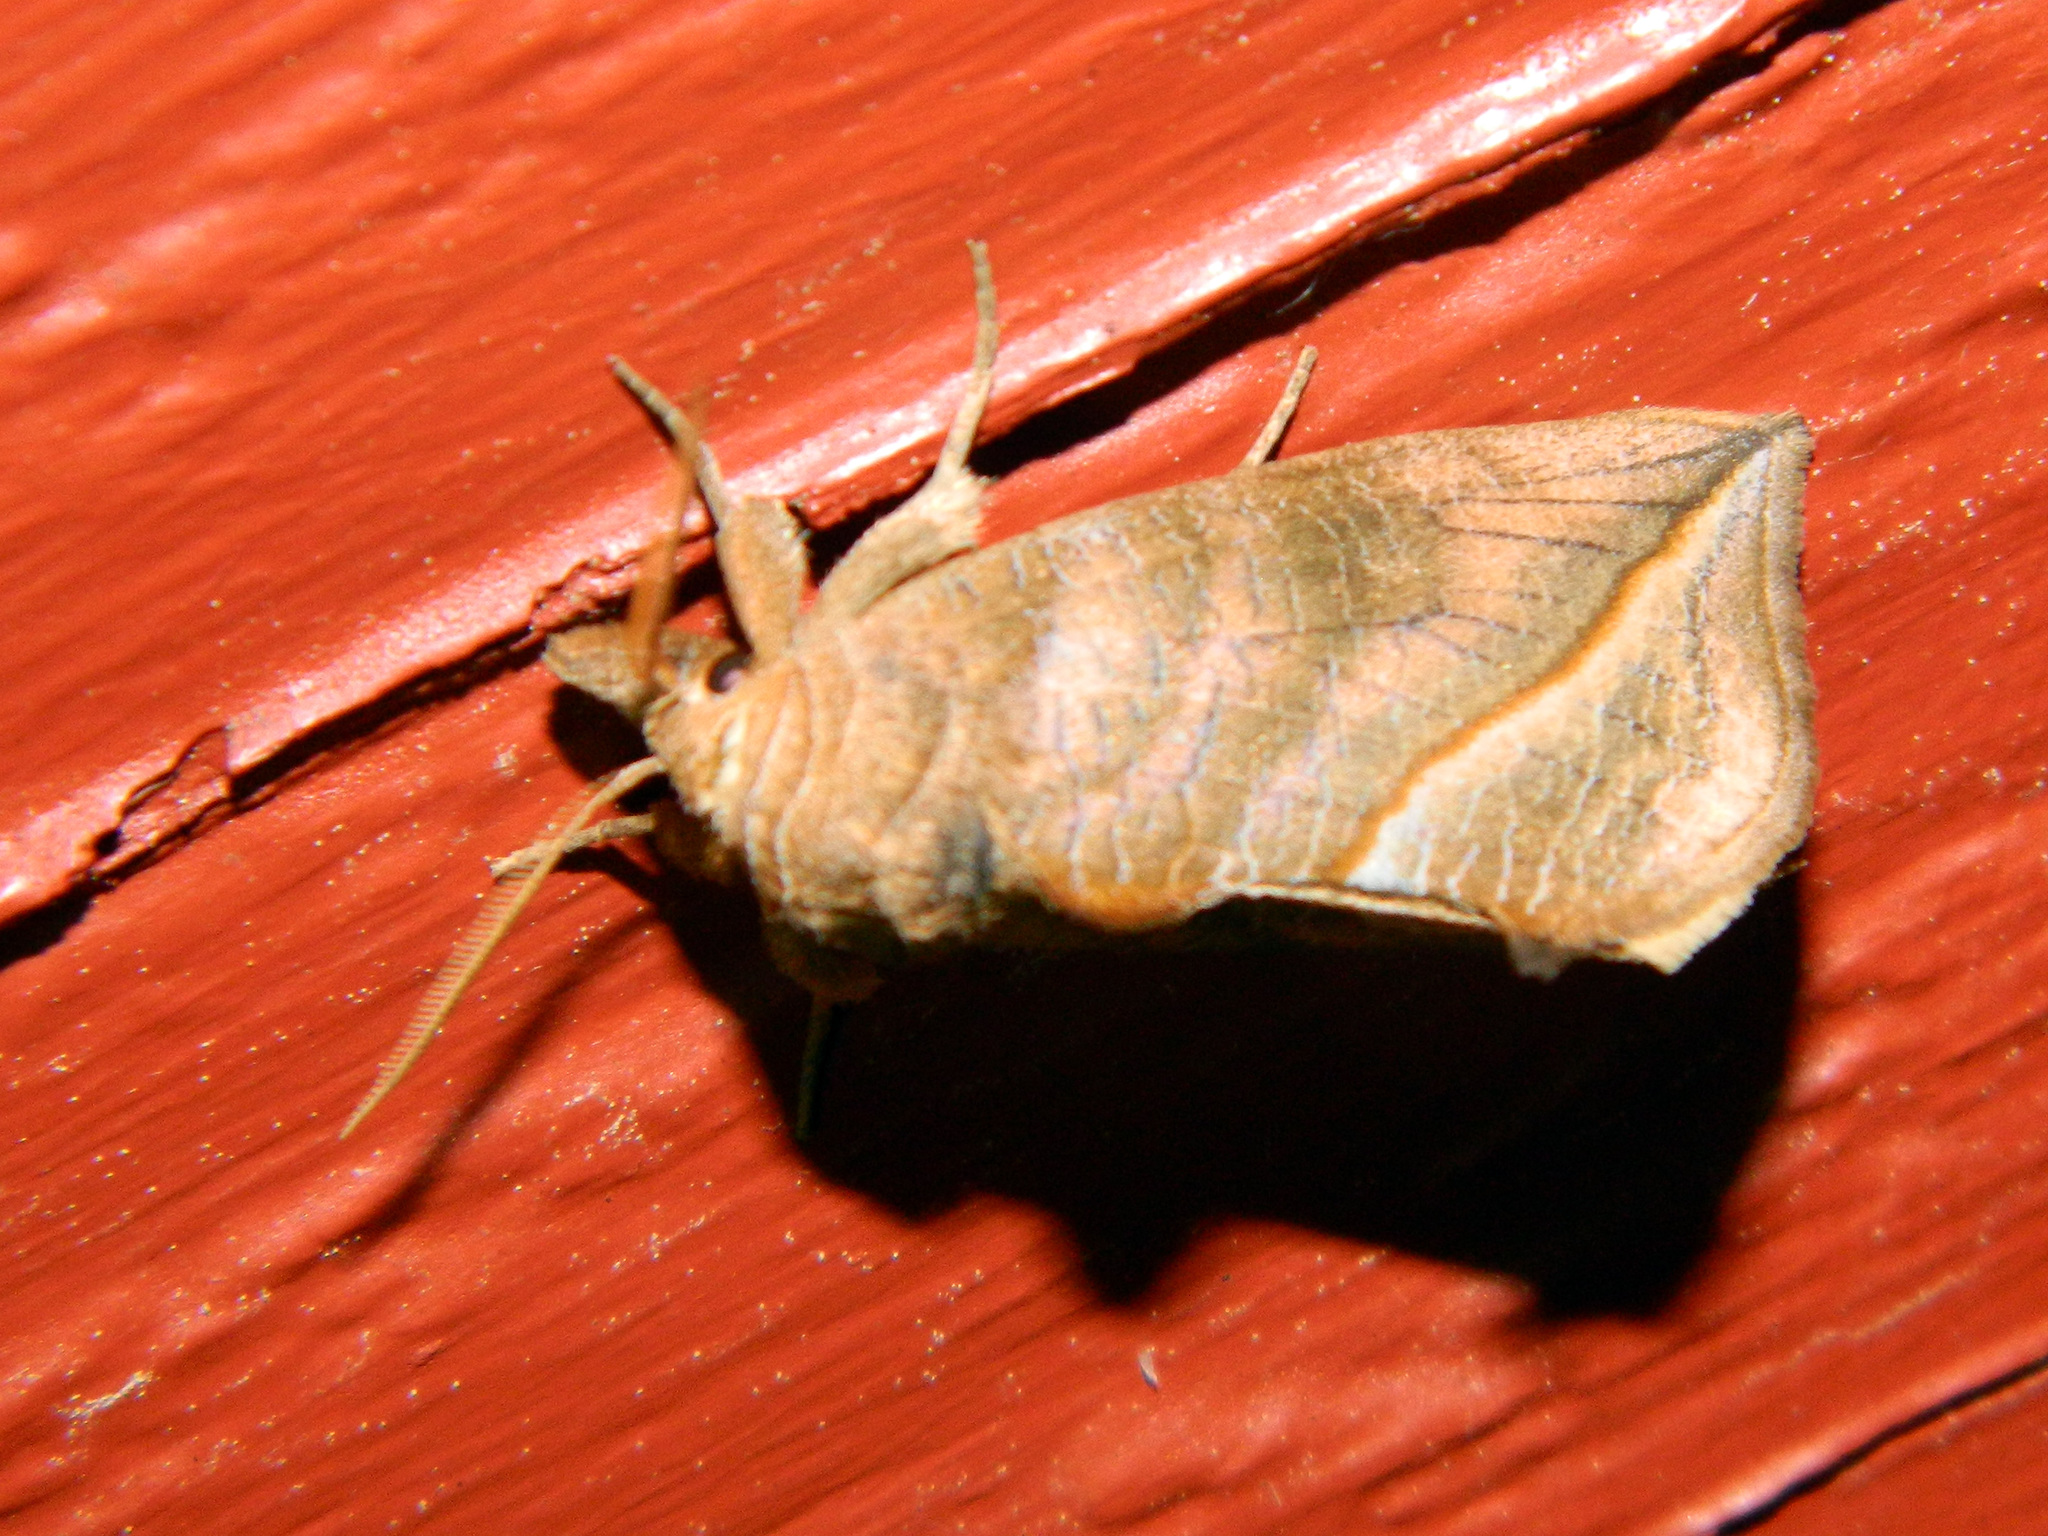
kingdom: Animalia
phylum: Arthropoda
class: Insecta
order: Lepidoptera
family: Erebidae
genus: Calyptra
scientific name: Calyptra canadensis
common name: Canadian owlet
